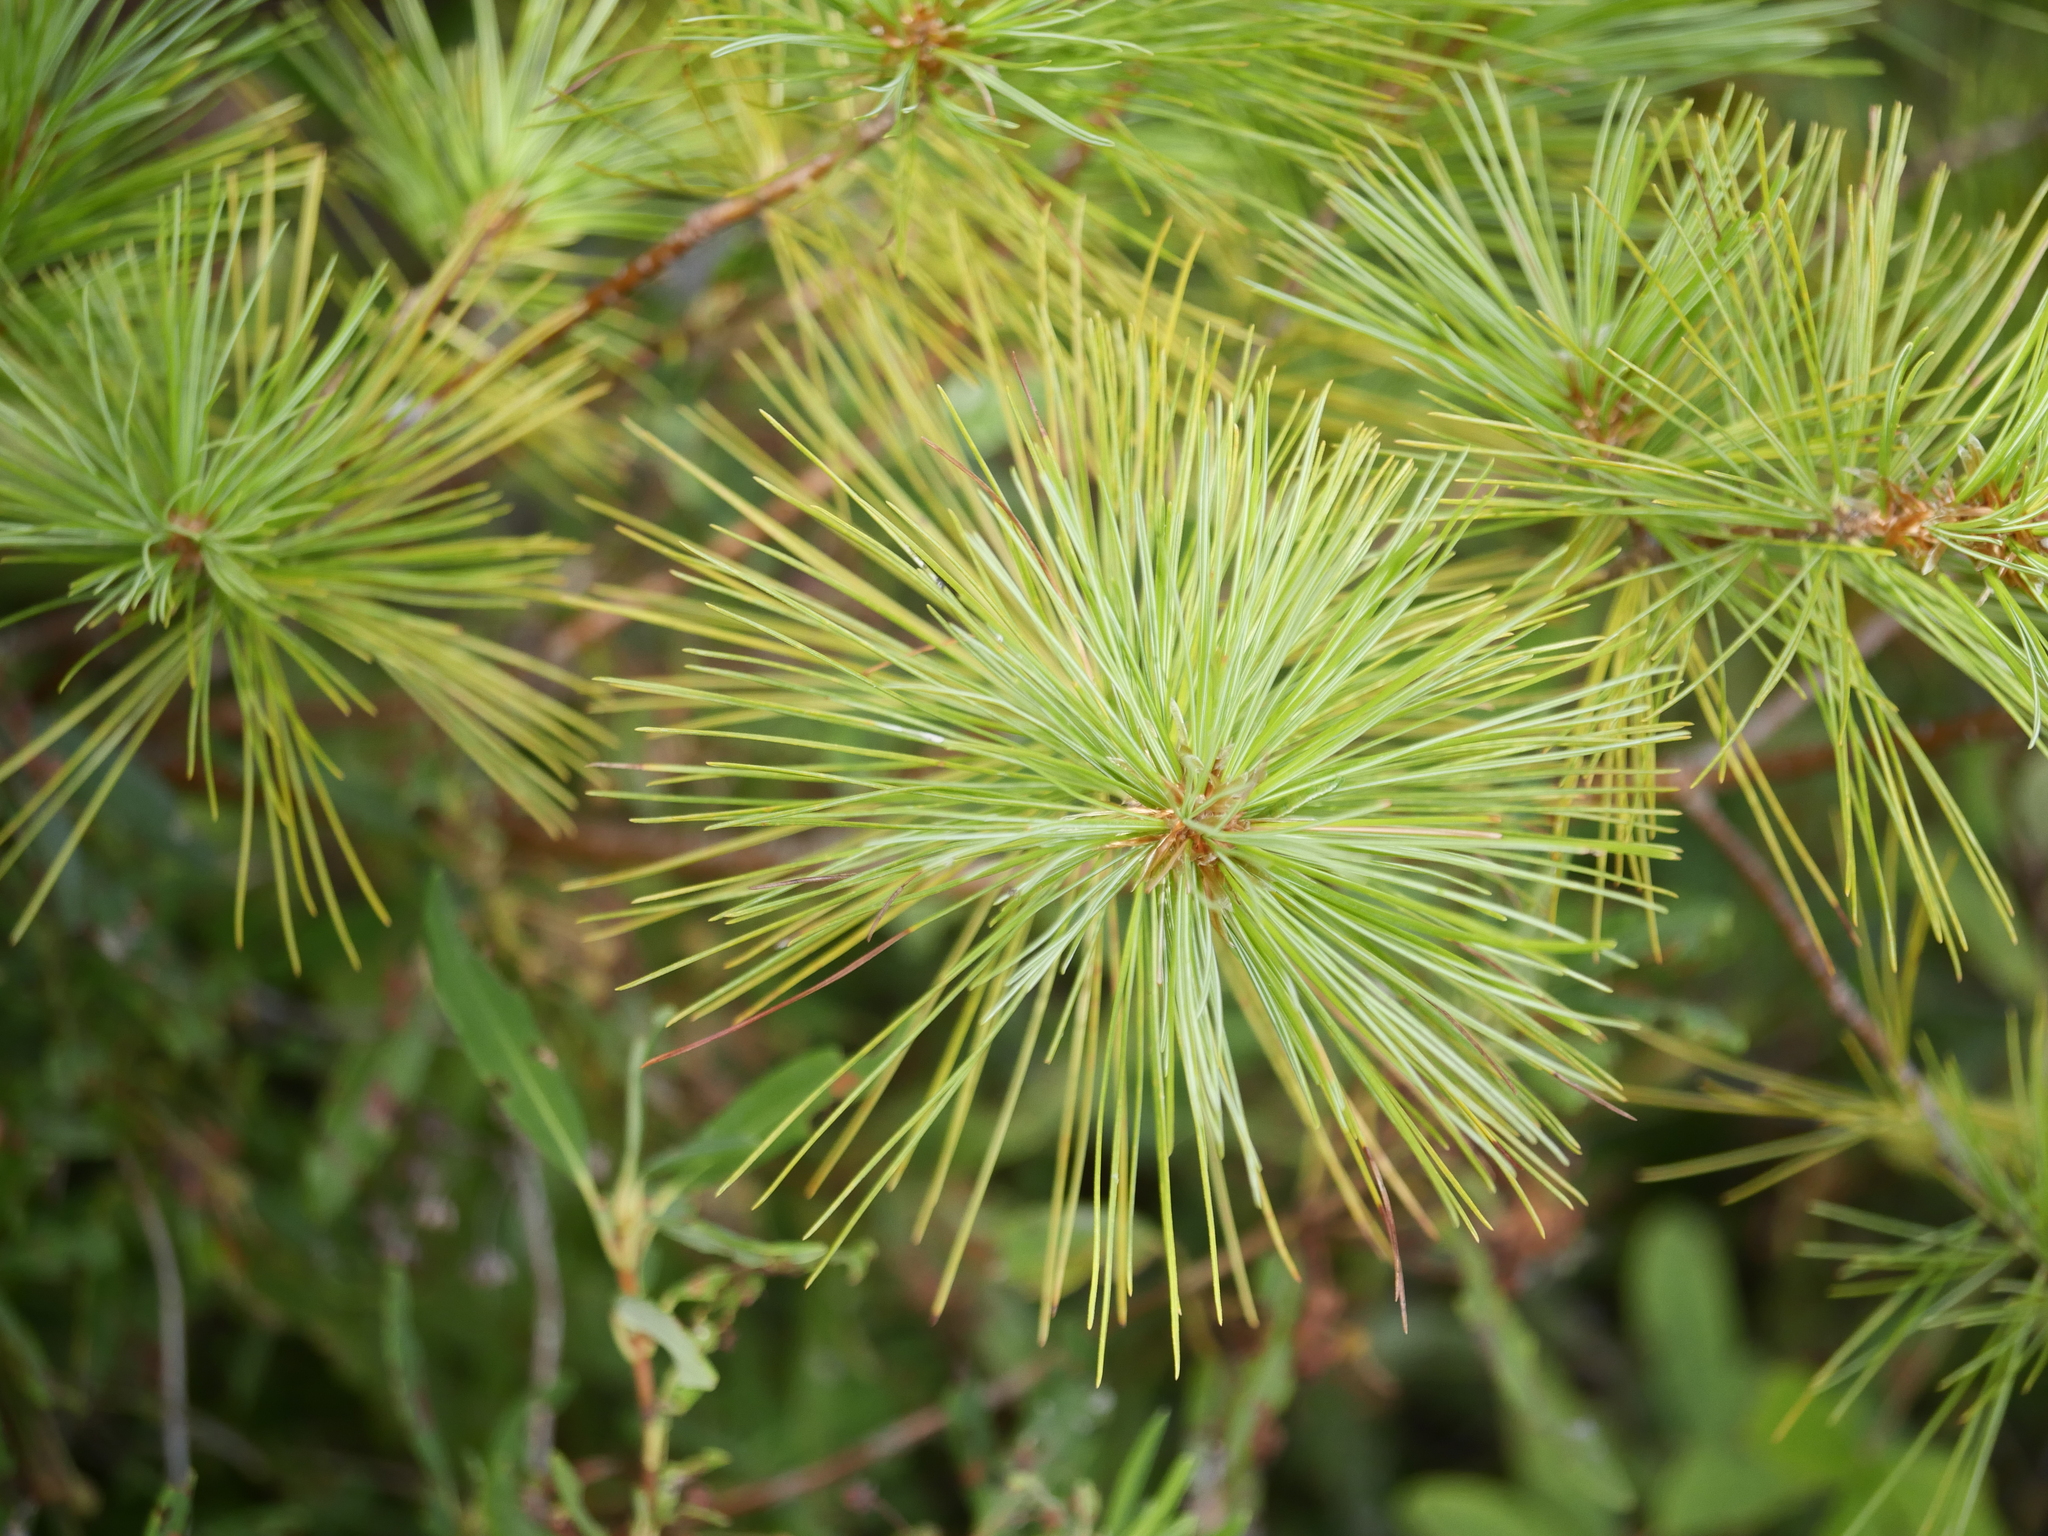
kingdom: Plantae
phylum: Tracheophyta
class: Pinopsida
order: Pinales
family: Pinaceae
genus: Pinus
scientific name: Pinus strobus
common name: Weymouth pine
